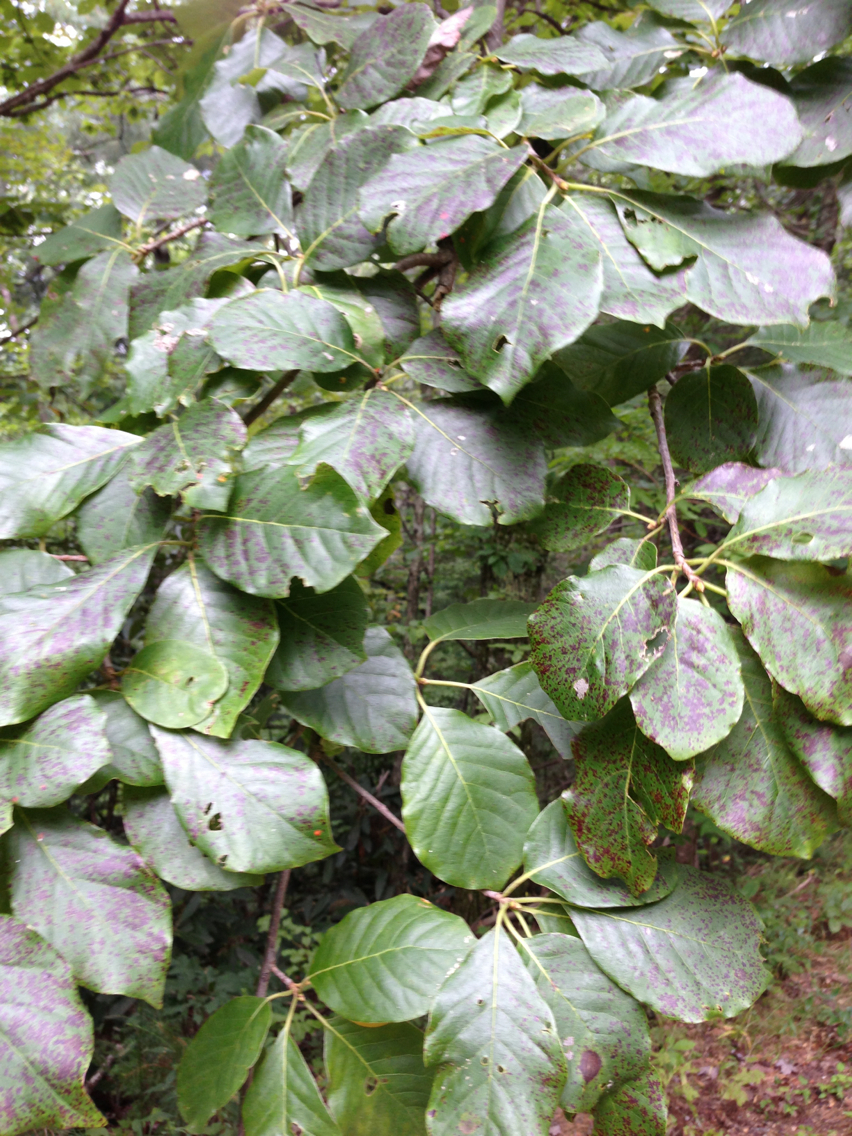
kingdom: Plantae
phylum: Tracheophyta
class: Magnoliopsida
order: Cornales
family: Nyssaceae
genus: Nyssa
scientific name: Nyssa sylvatica
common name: Black tupelo
